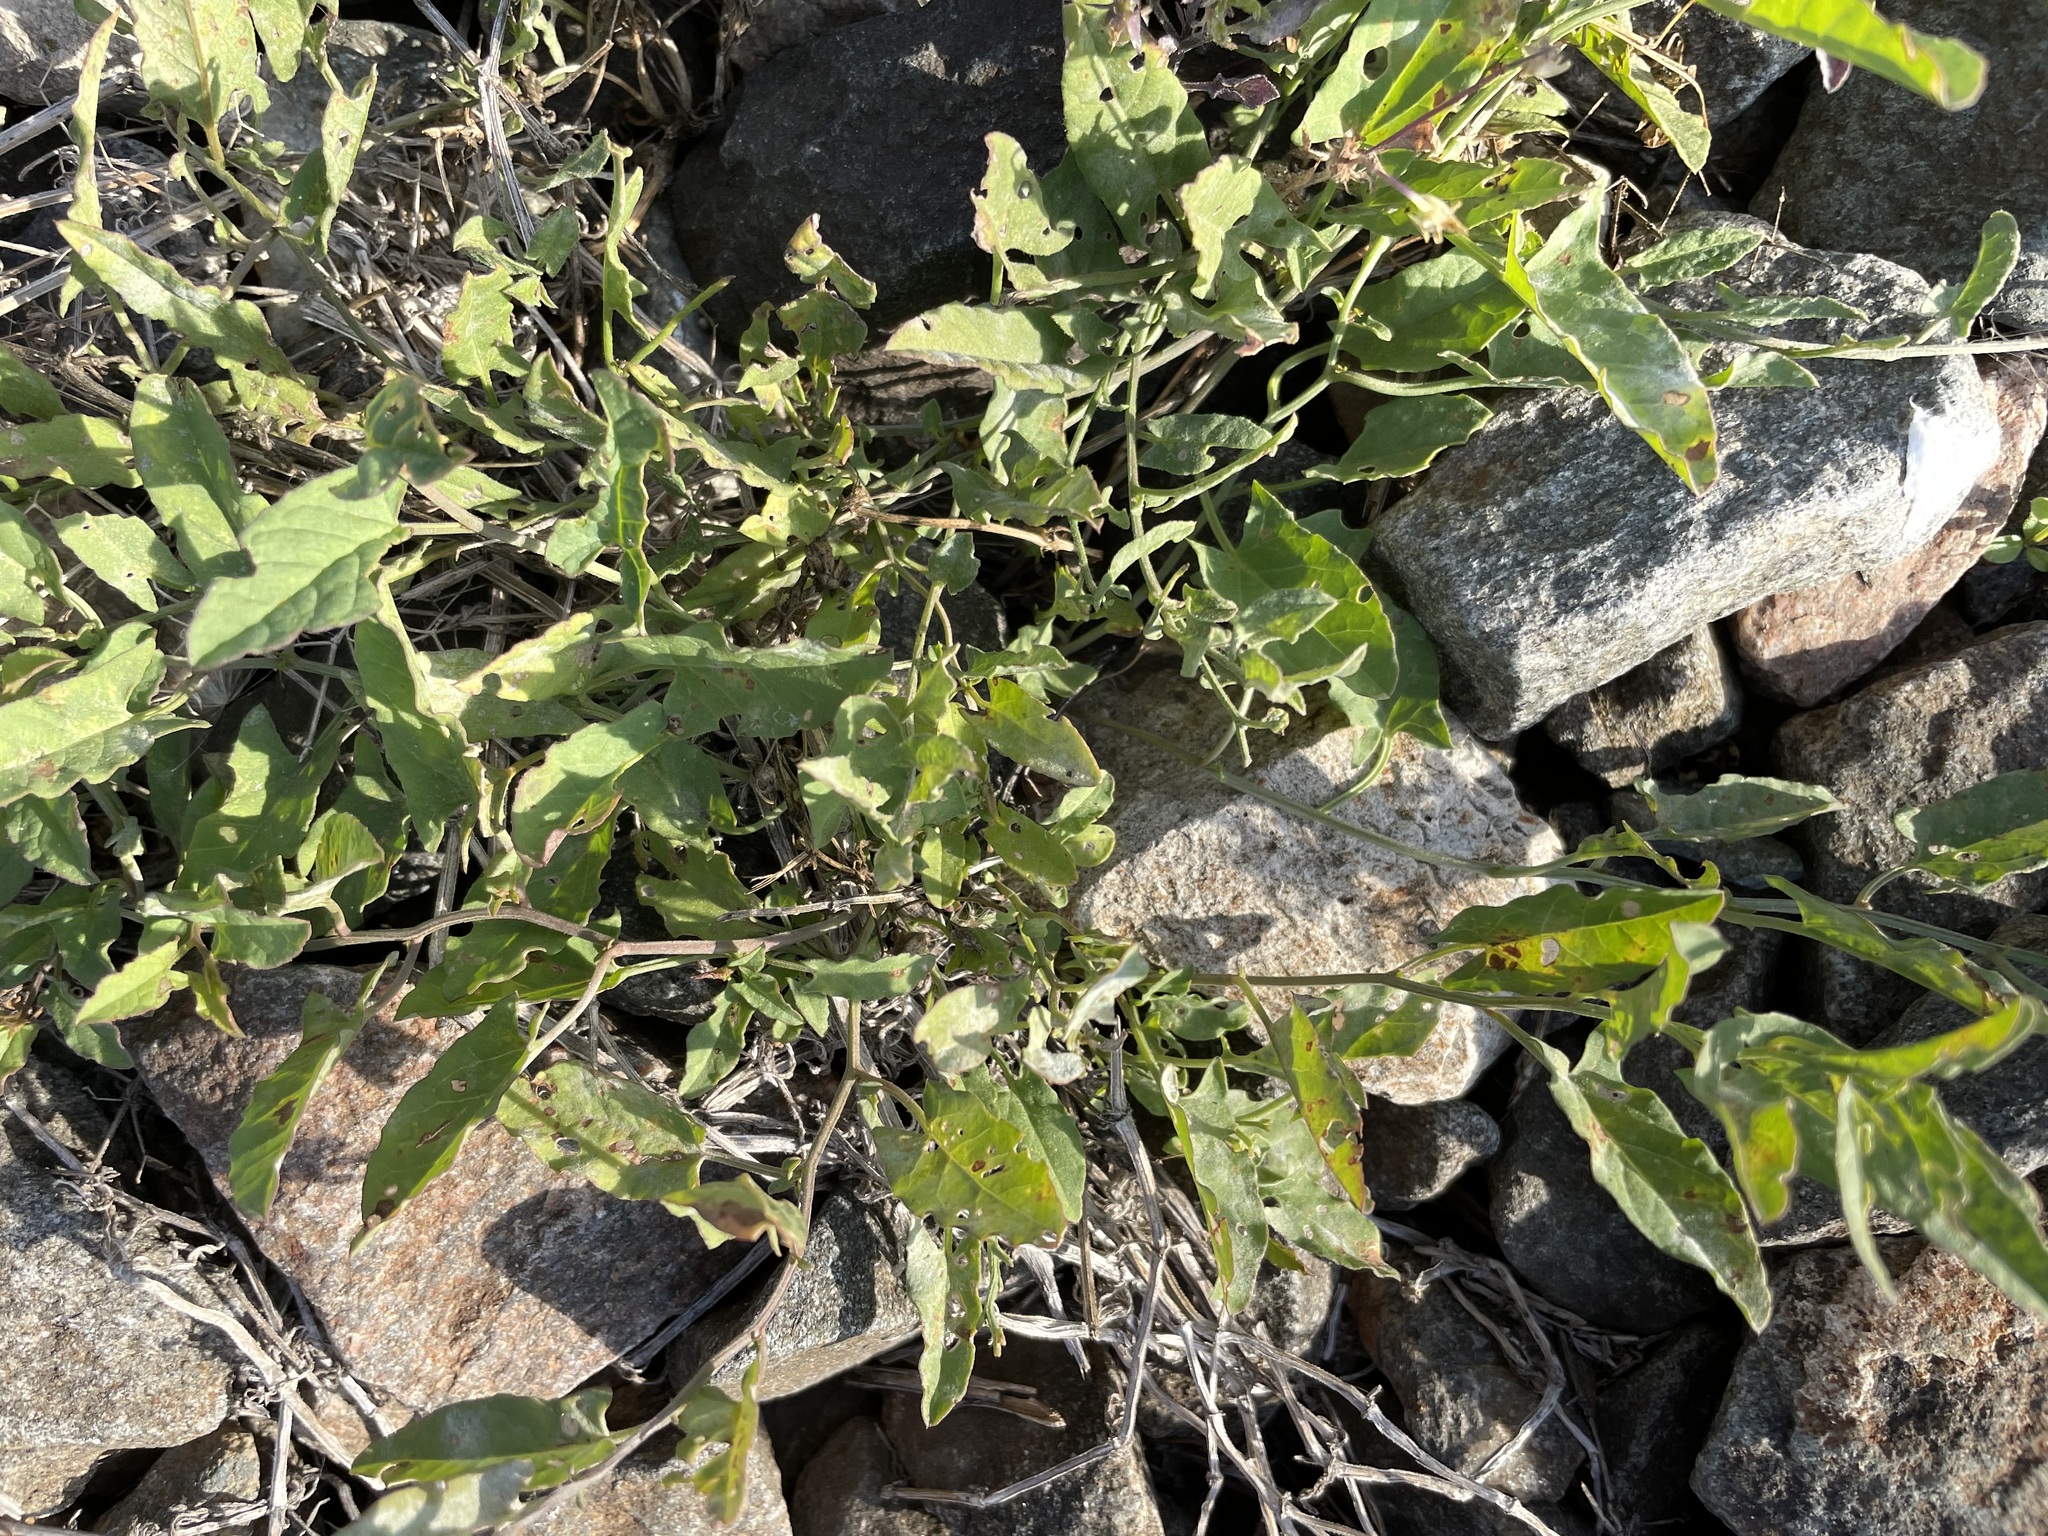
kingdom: Plantae
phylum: Tracheophyta
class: Magnoliopsida
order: Solanales
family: Convolvulaceae
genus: Convolvulus
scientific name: Convolvulus arvensis
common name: Field bindweed
